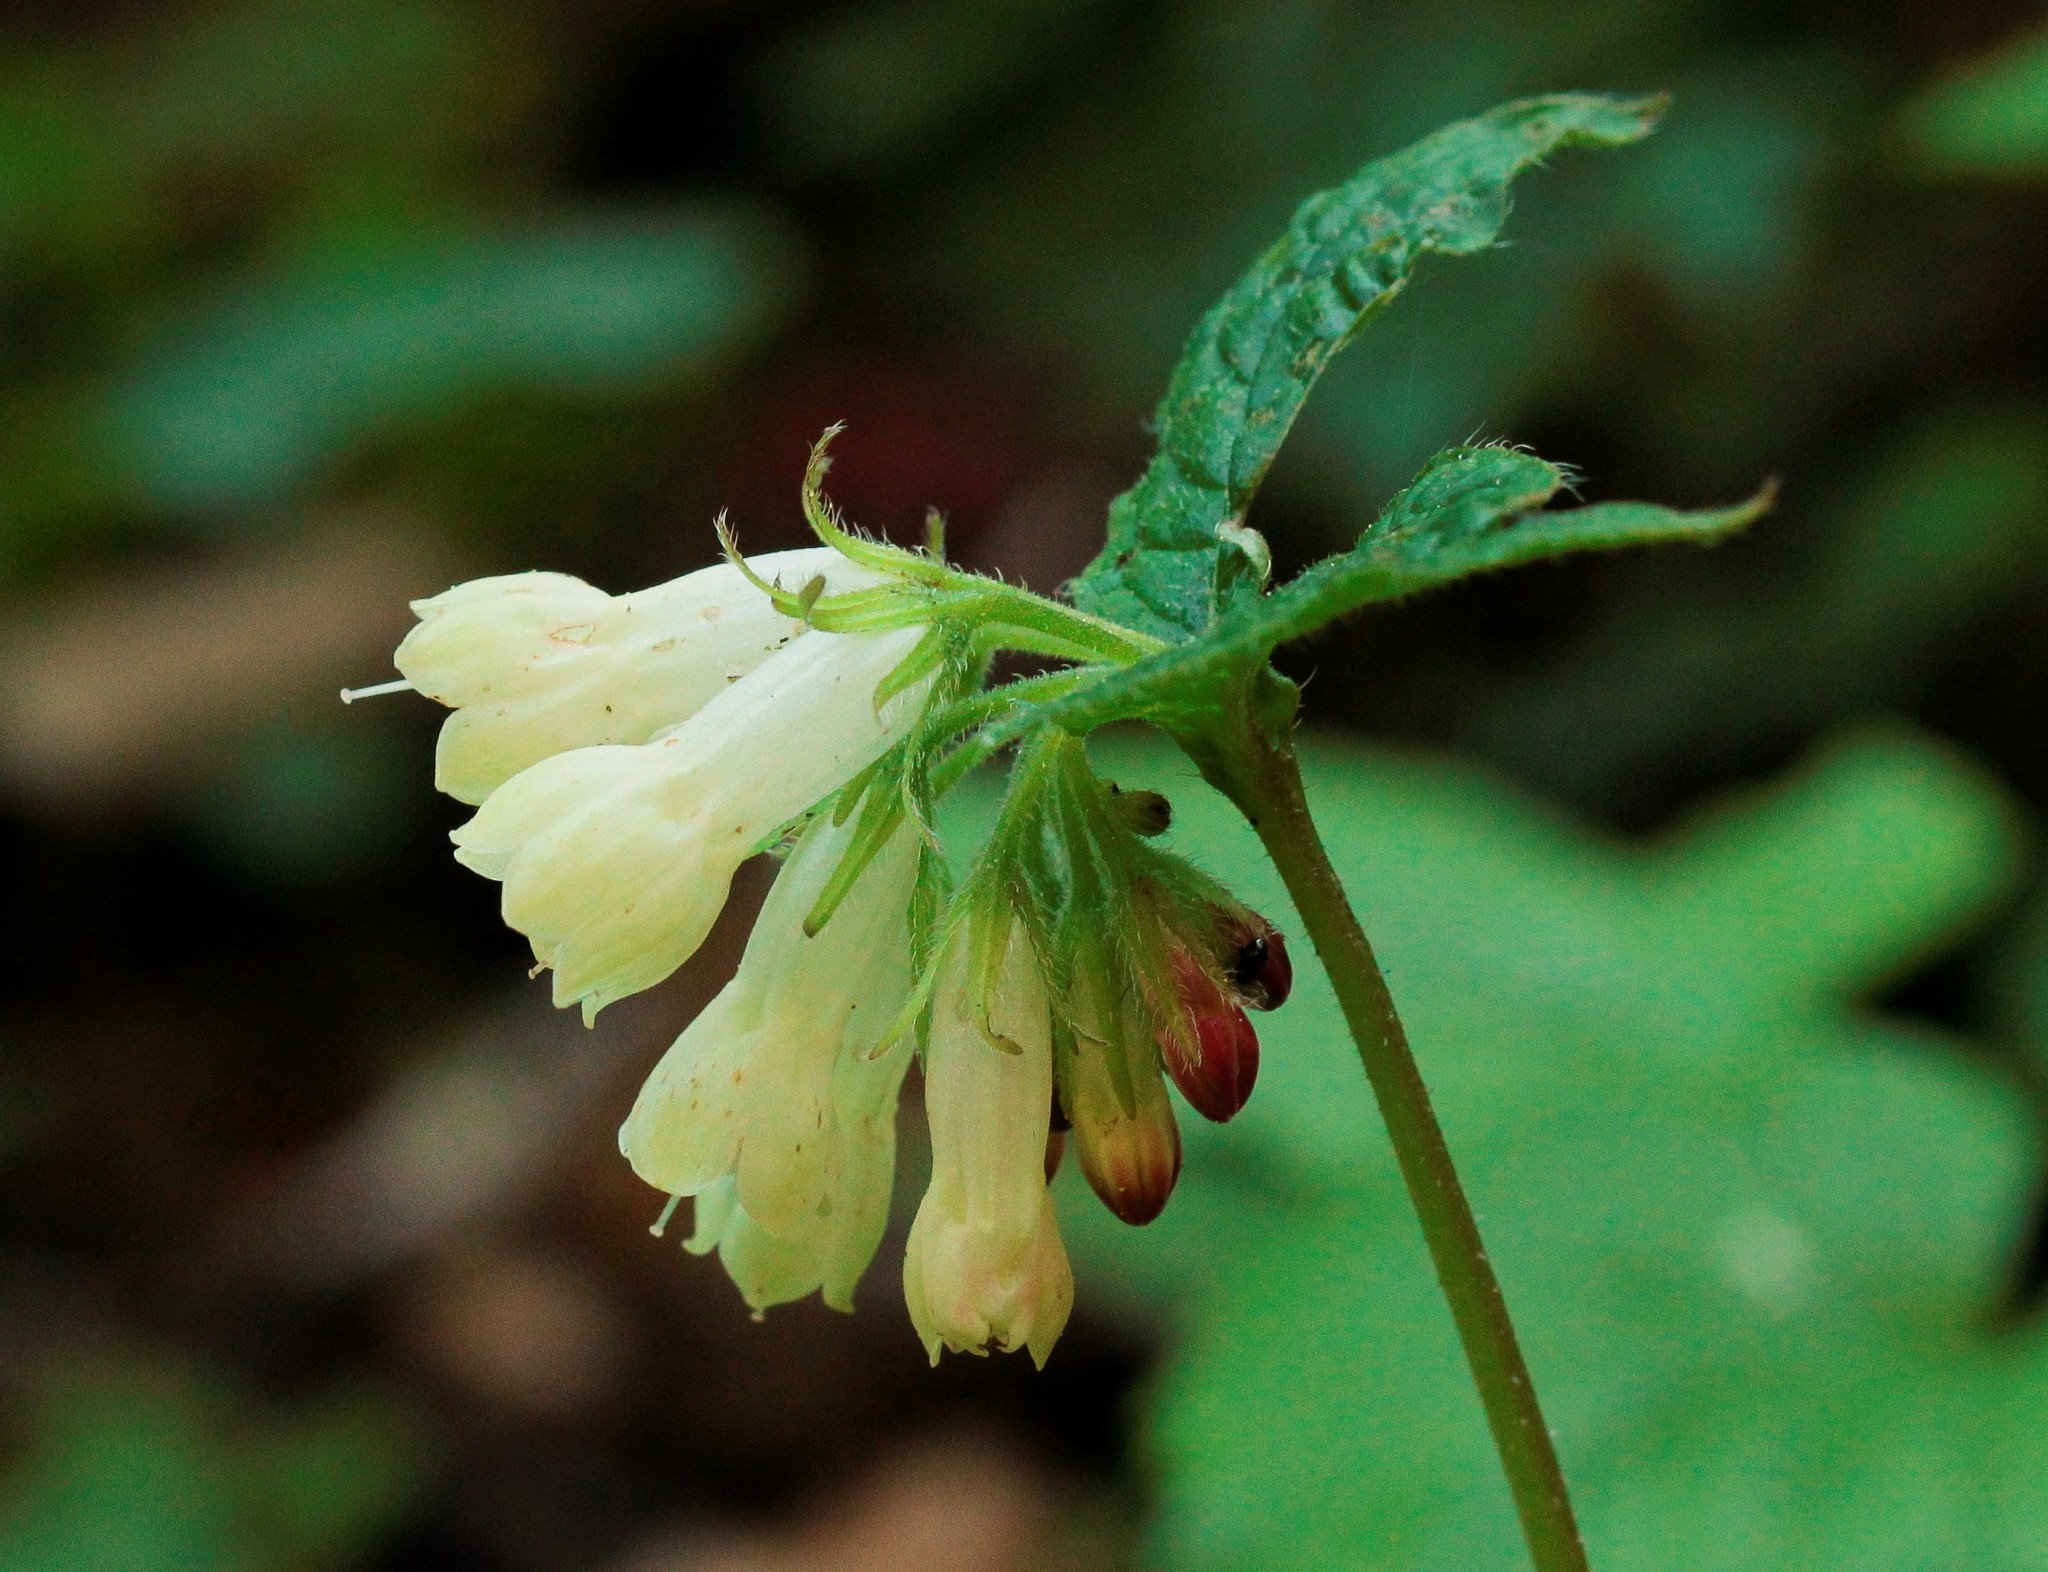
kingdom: Plantae
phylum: Tracheophyta
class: Magnoliopsida
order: Boraginales
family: Boraginaceae
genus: Symphytum
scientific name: Symphytum tauricum
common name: Crimean comfrey
